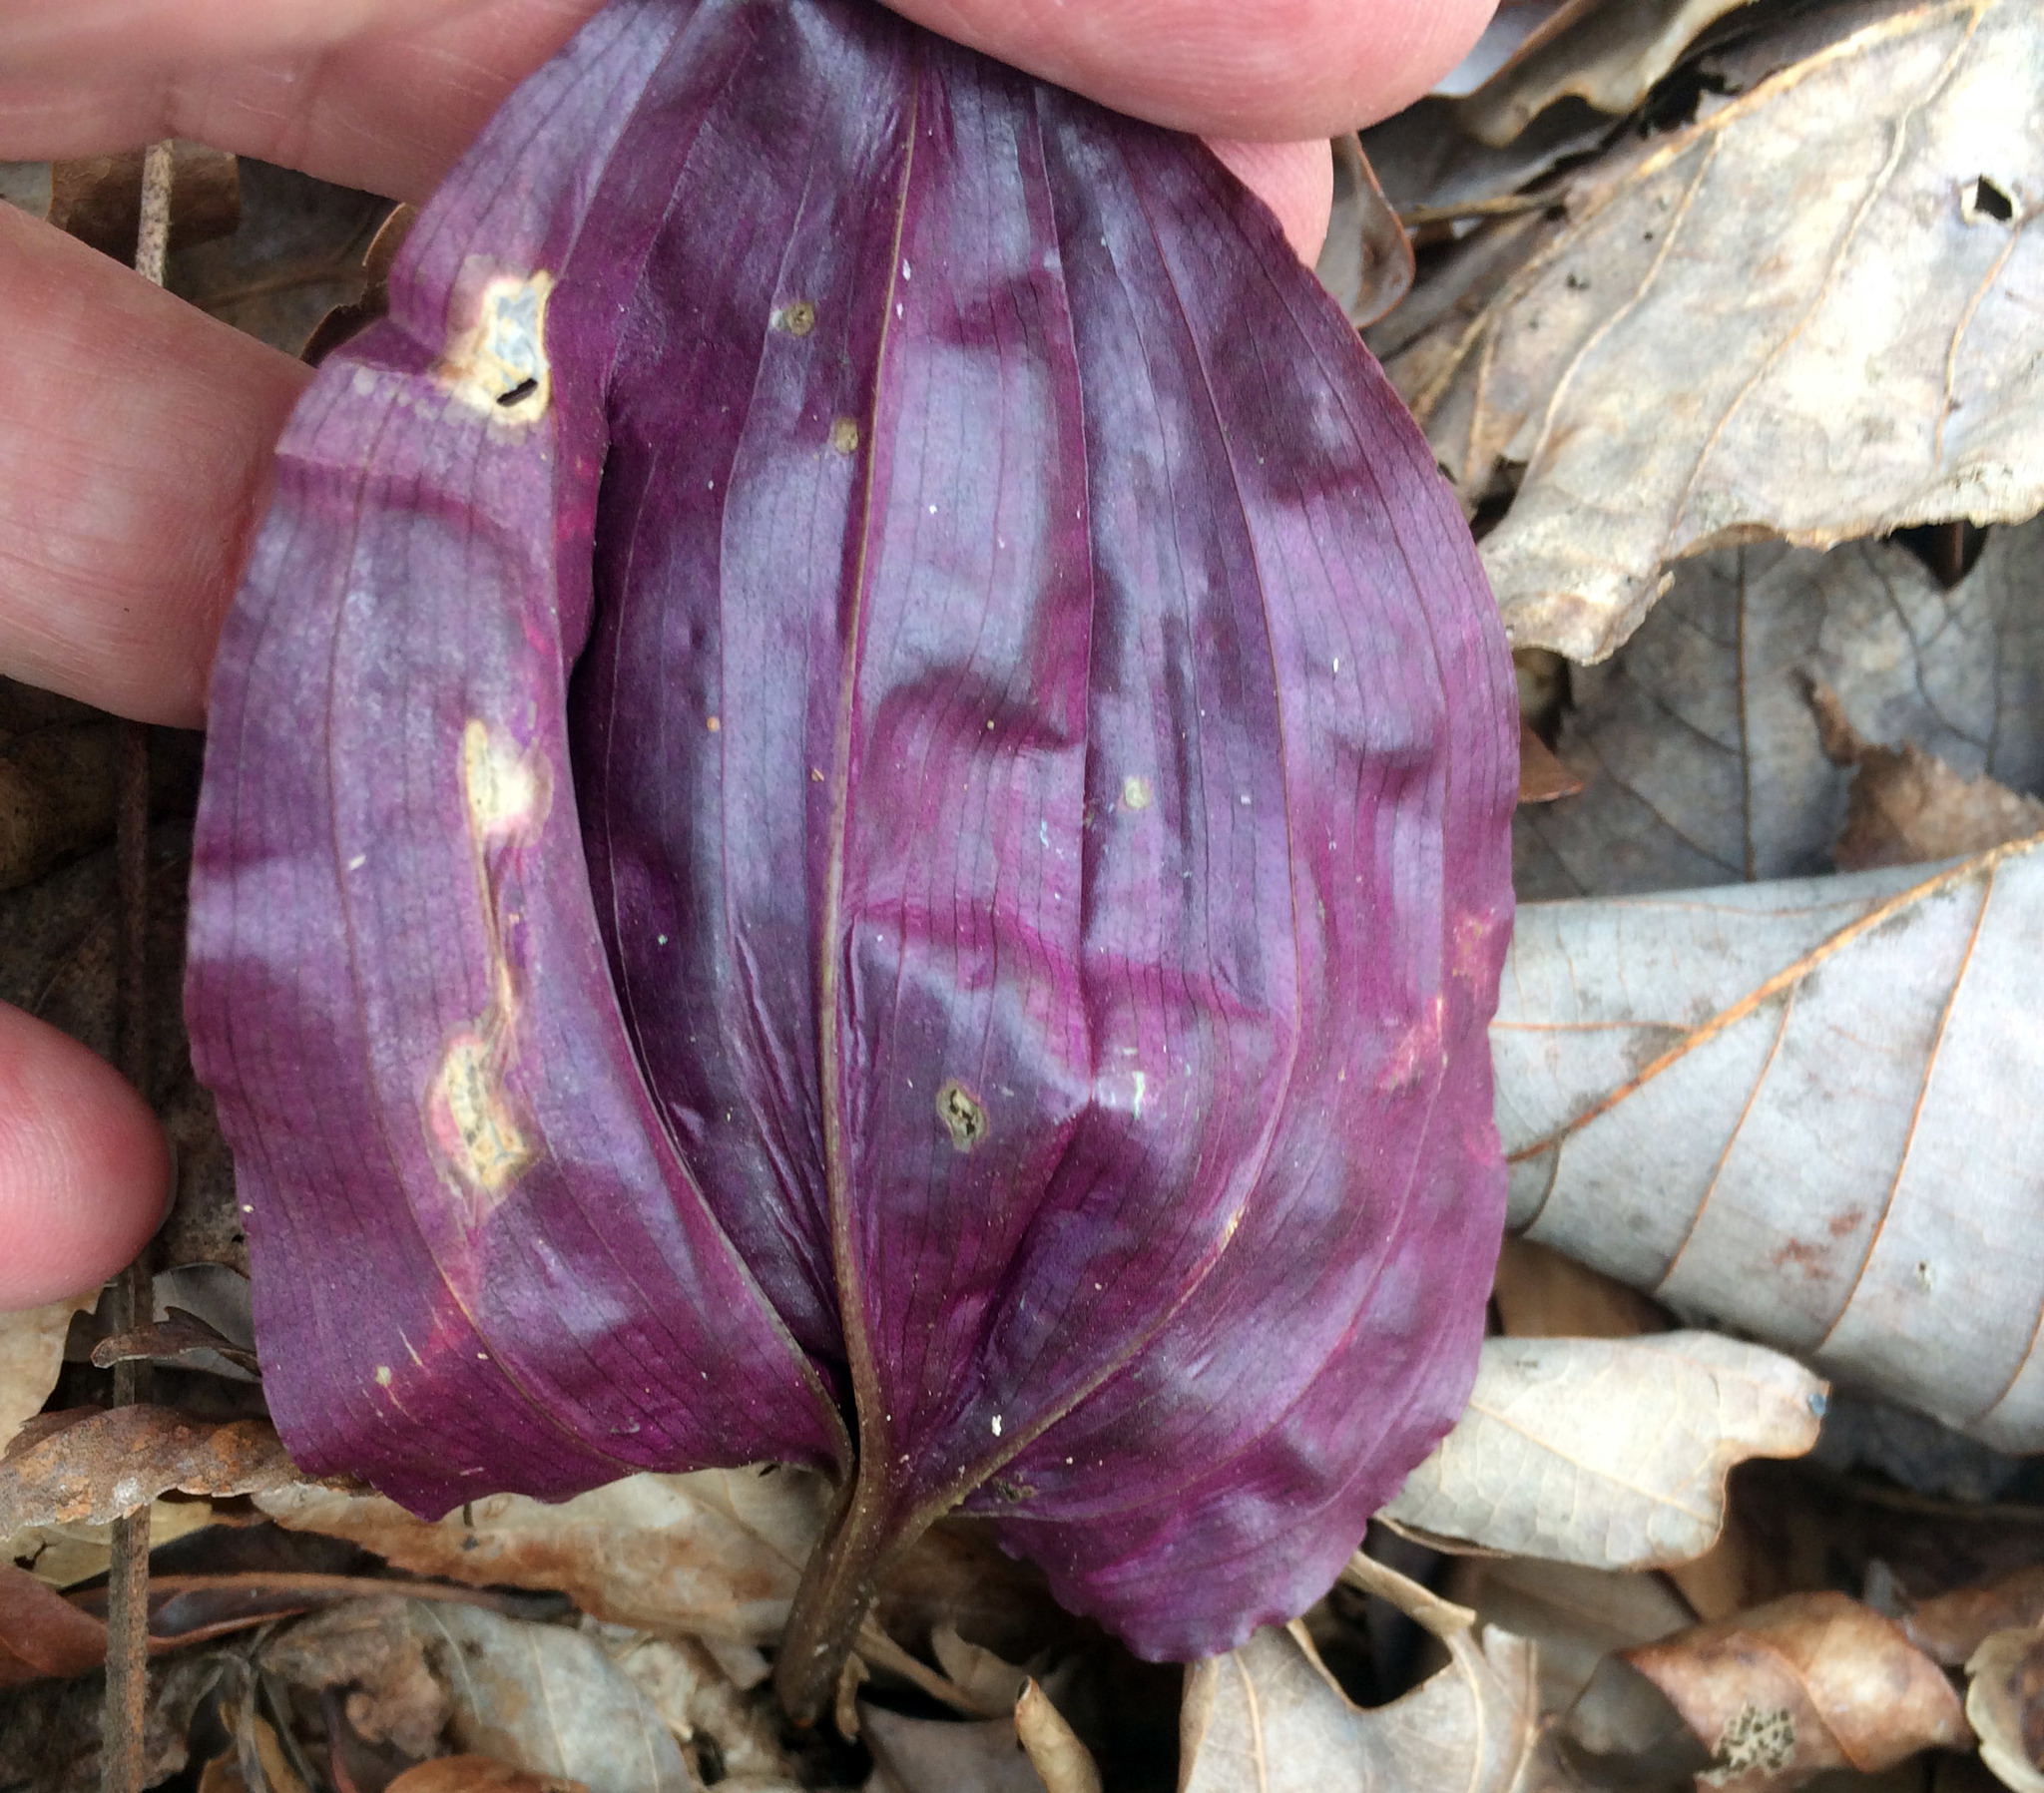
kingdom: Plantae
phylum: Tracheophyta
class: Liliopsida
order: Asparagales
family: Orchidaceae
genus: Tipularia
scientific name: Tipularia discolor
